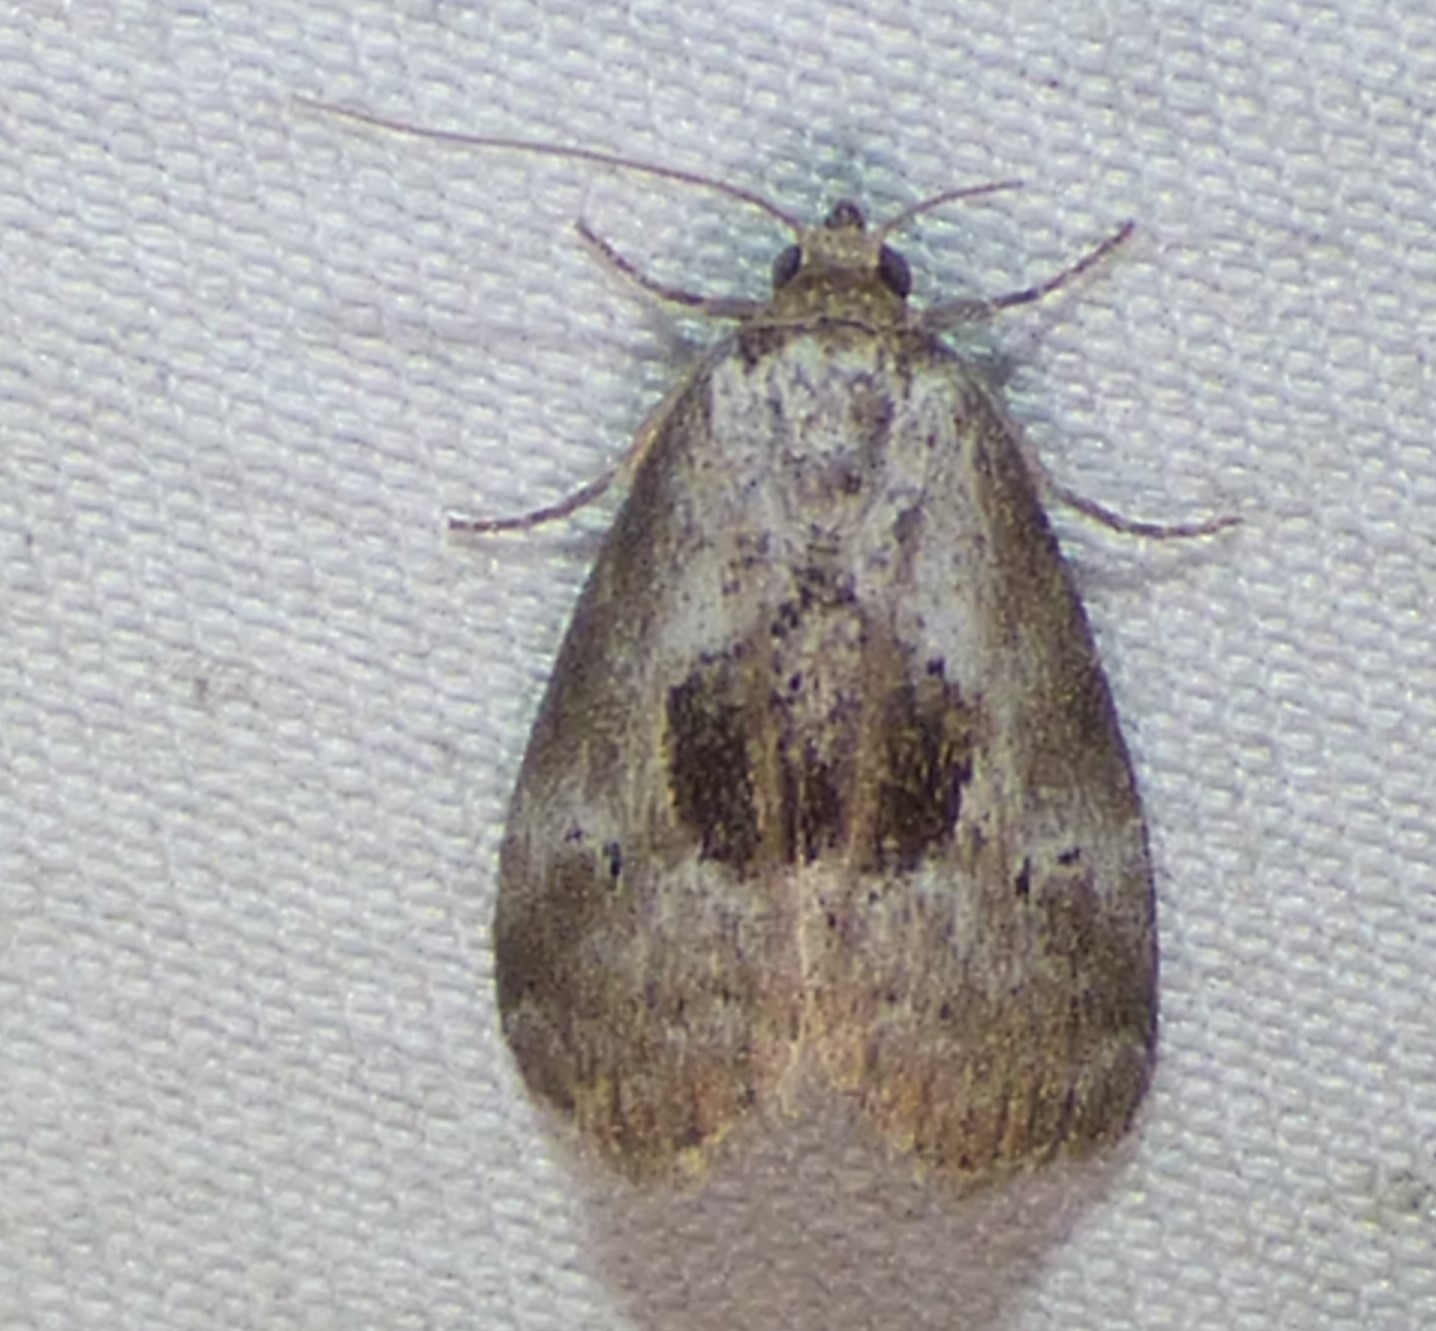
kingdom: Animalia
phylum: Arthropoda
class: Insecta
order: Lepidoptera
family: Erebidae
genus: Hyperstrotia
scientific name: Hyperstrotia secta
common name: Black-patched graylet
